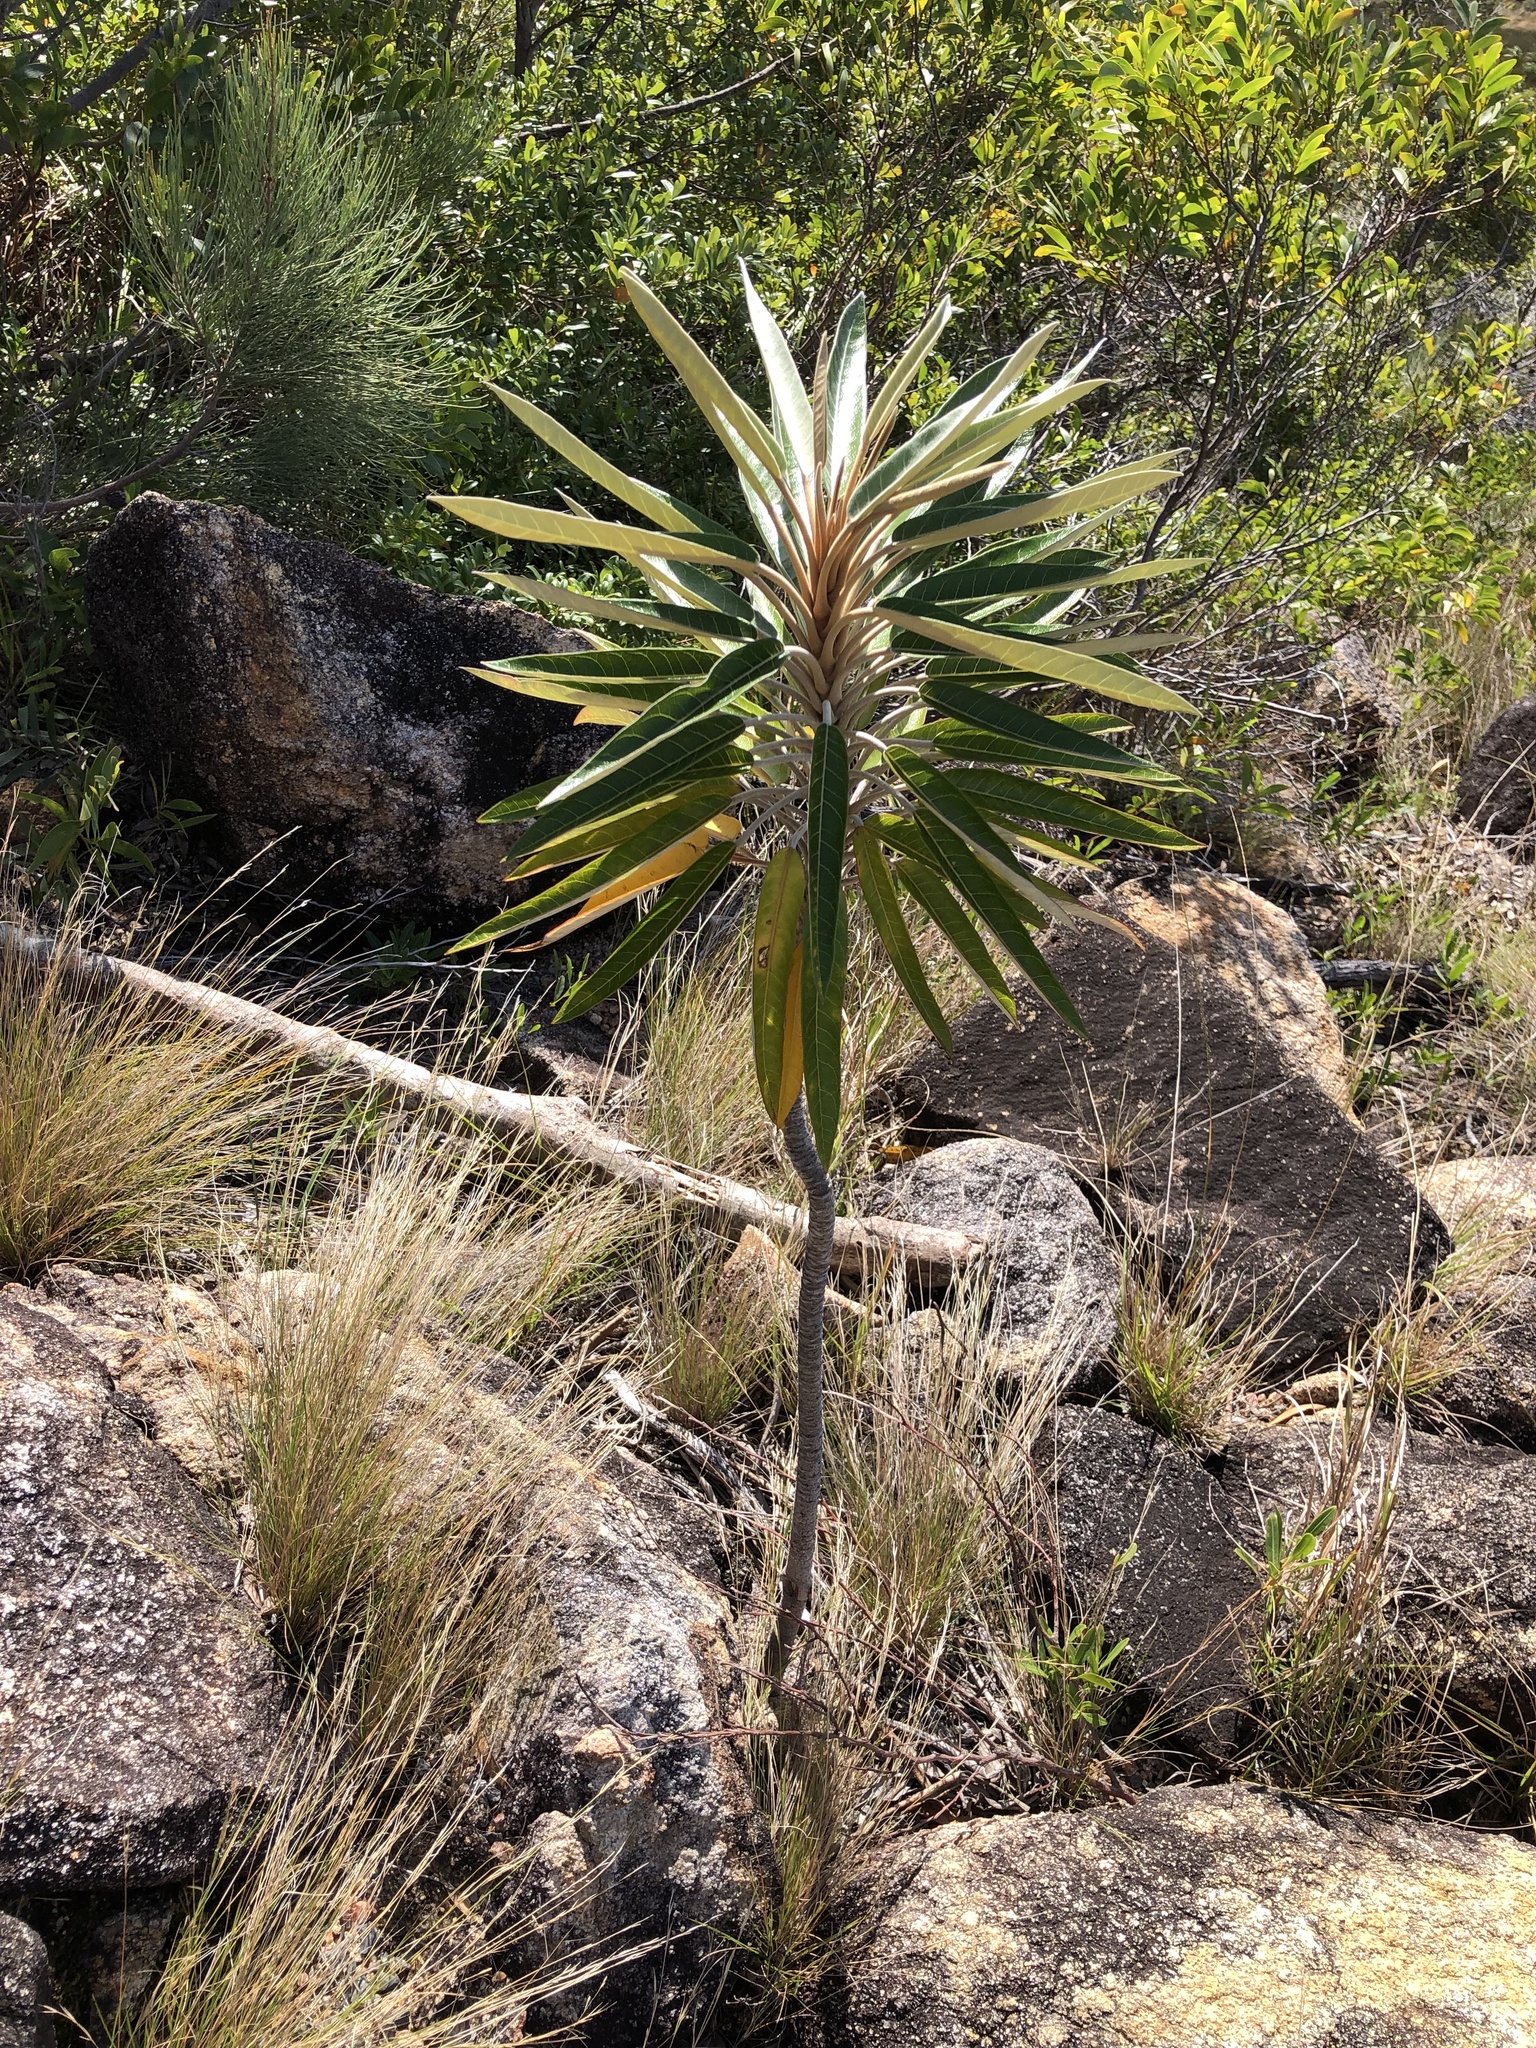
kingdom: Plantae
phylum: Tracheophyta
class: Magnoliopsida
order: Apiales
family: Araliaceae
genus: Astrotricha
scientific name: Astrotricha pterocarpa
